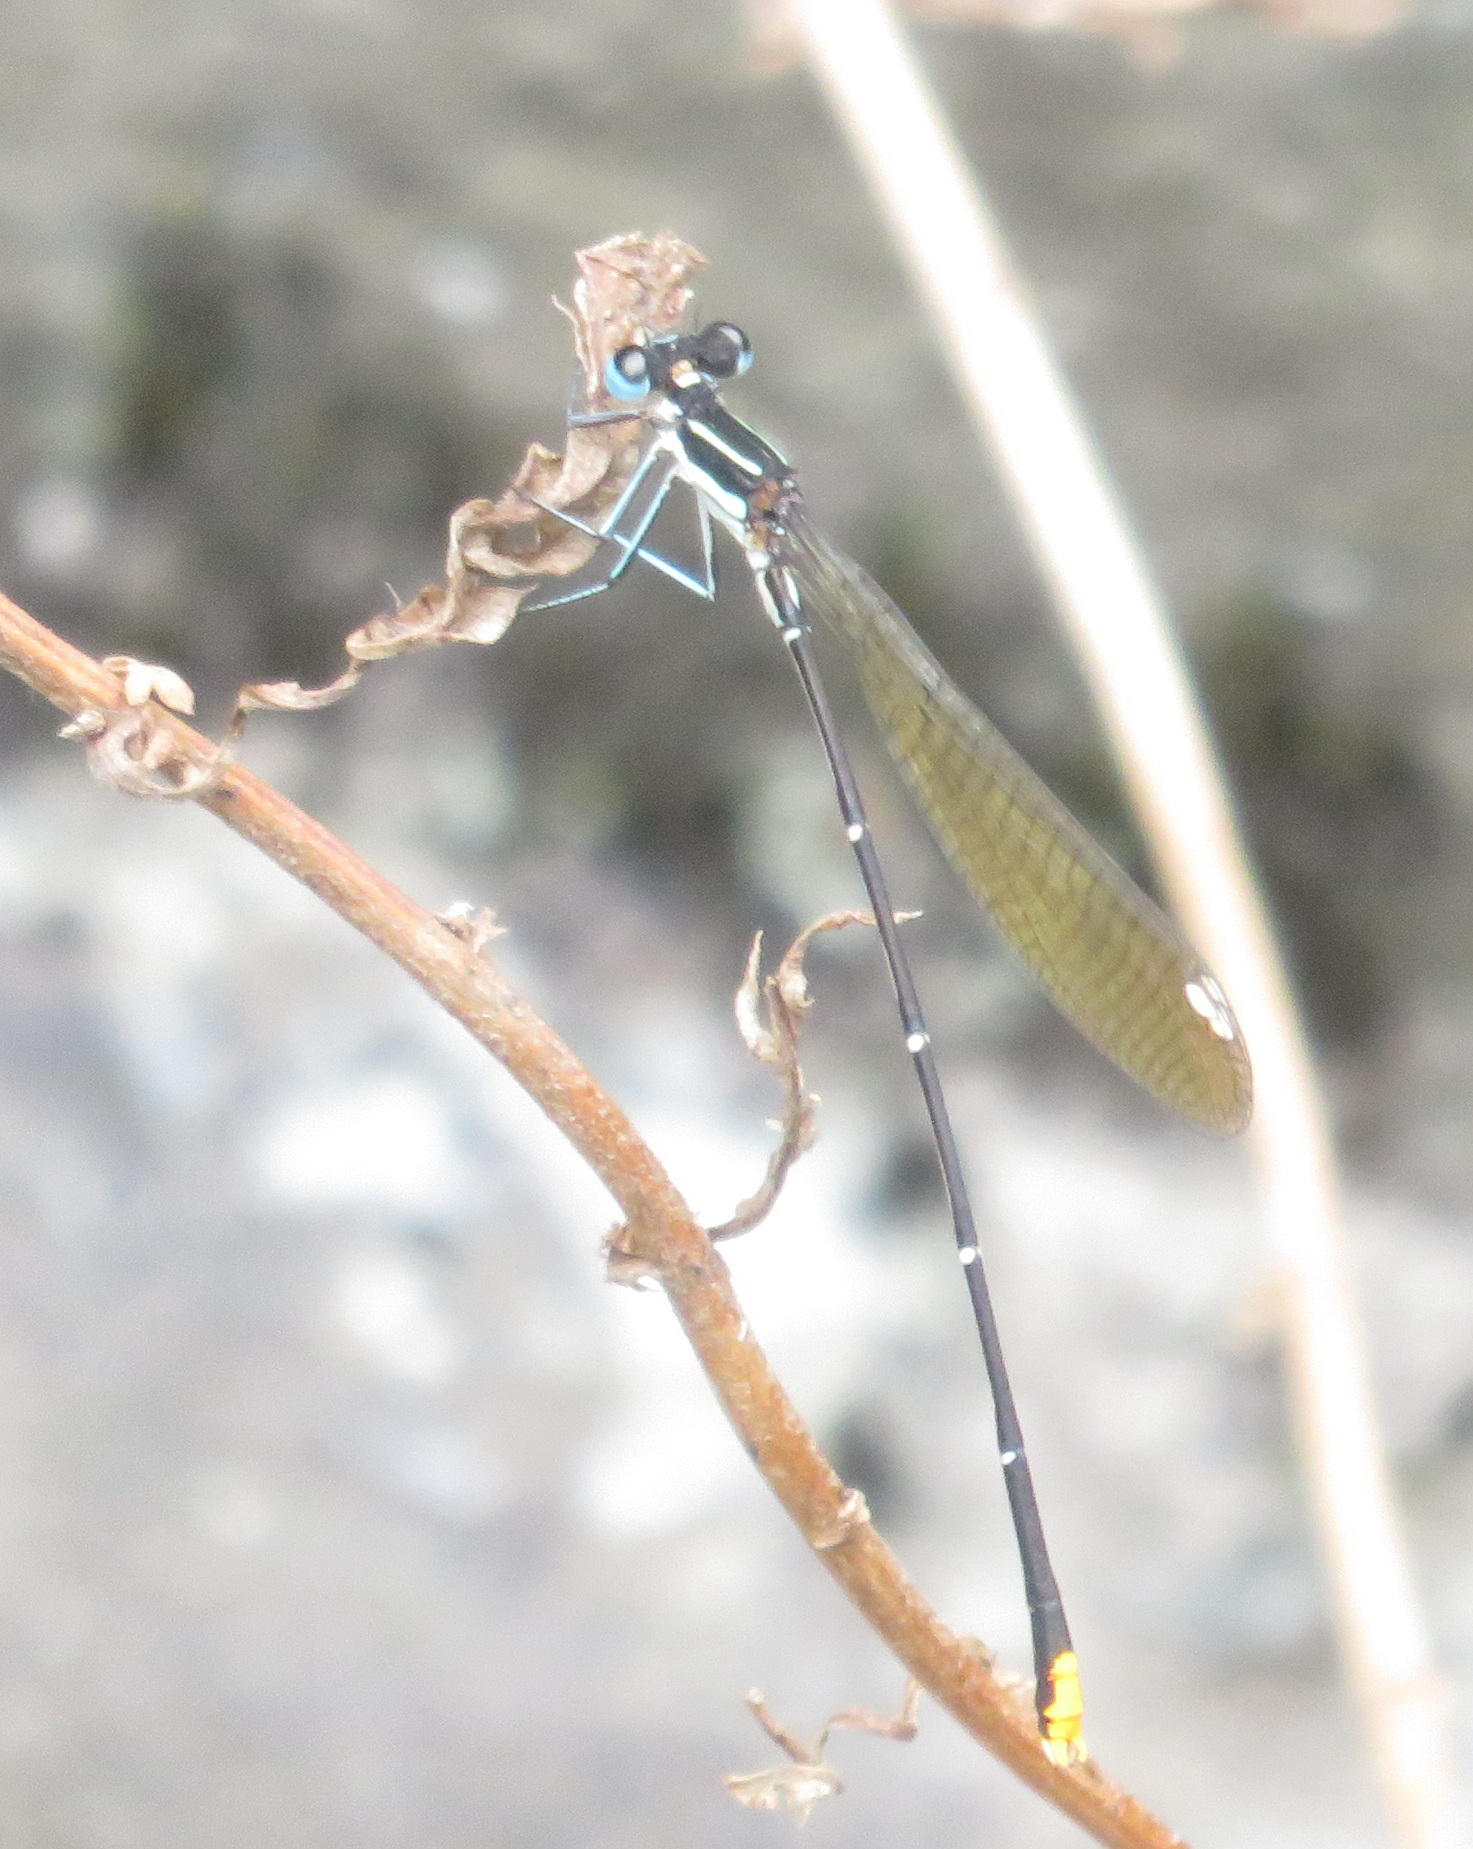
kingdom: Animalia
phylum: Arthropoda
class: Insecta
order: Odonata
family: Platycnemididae
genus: Allocnemis
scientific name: Allocnemis leucosticta
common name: Goldtail
